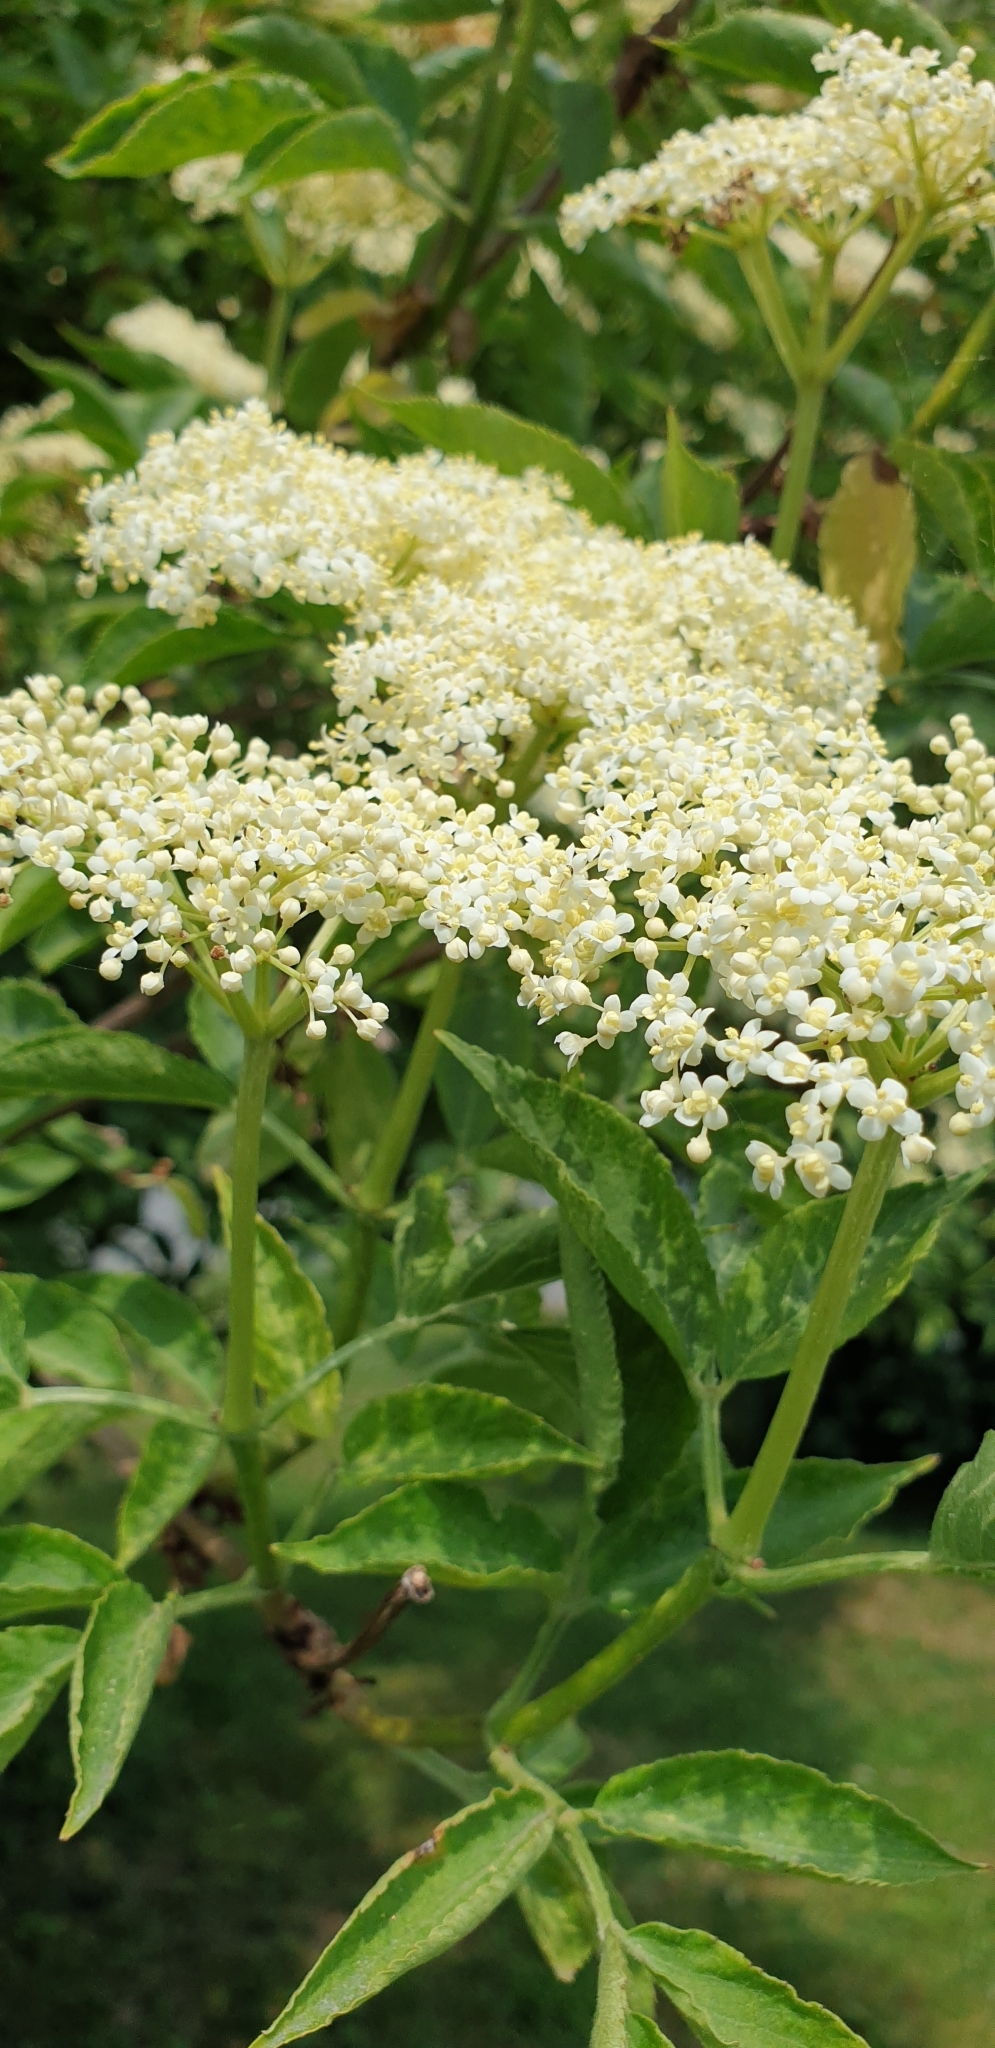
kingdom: Plantae
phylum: Tracheophyta
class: Magnoliopsida
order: Dipsacales
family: Viburnaceae
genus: Sambucus
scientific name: Sambucus nigra
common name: Elder
